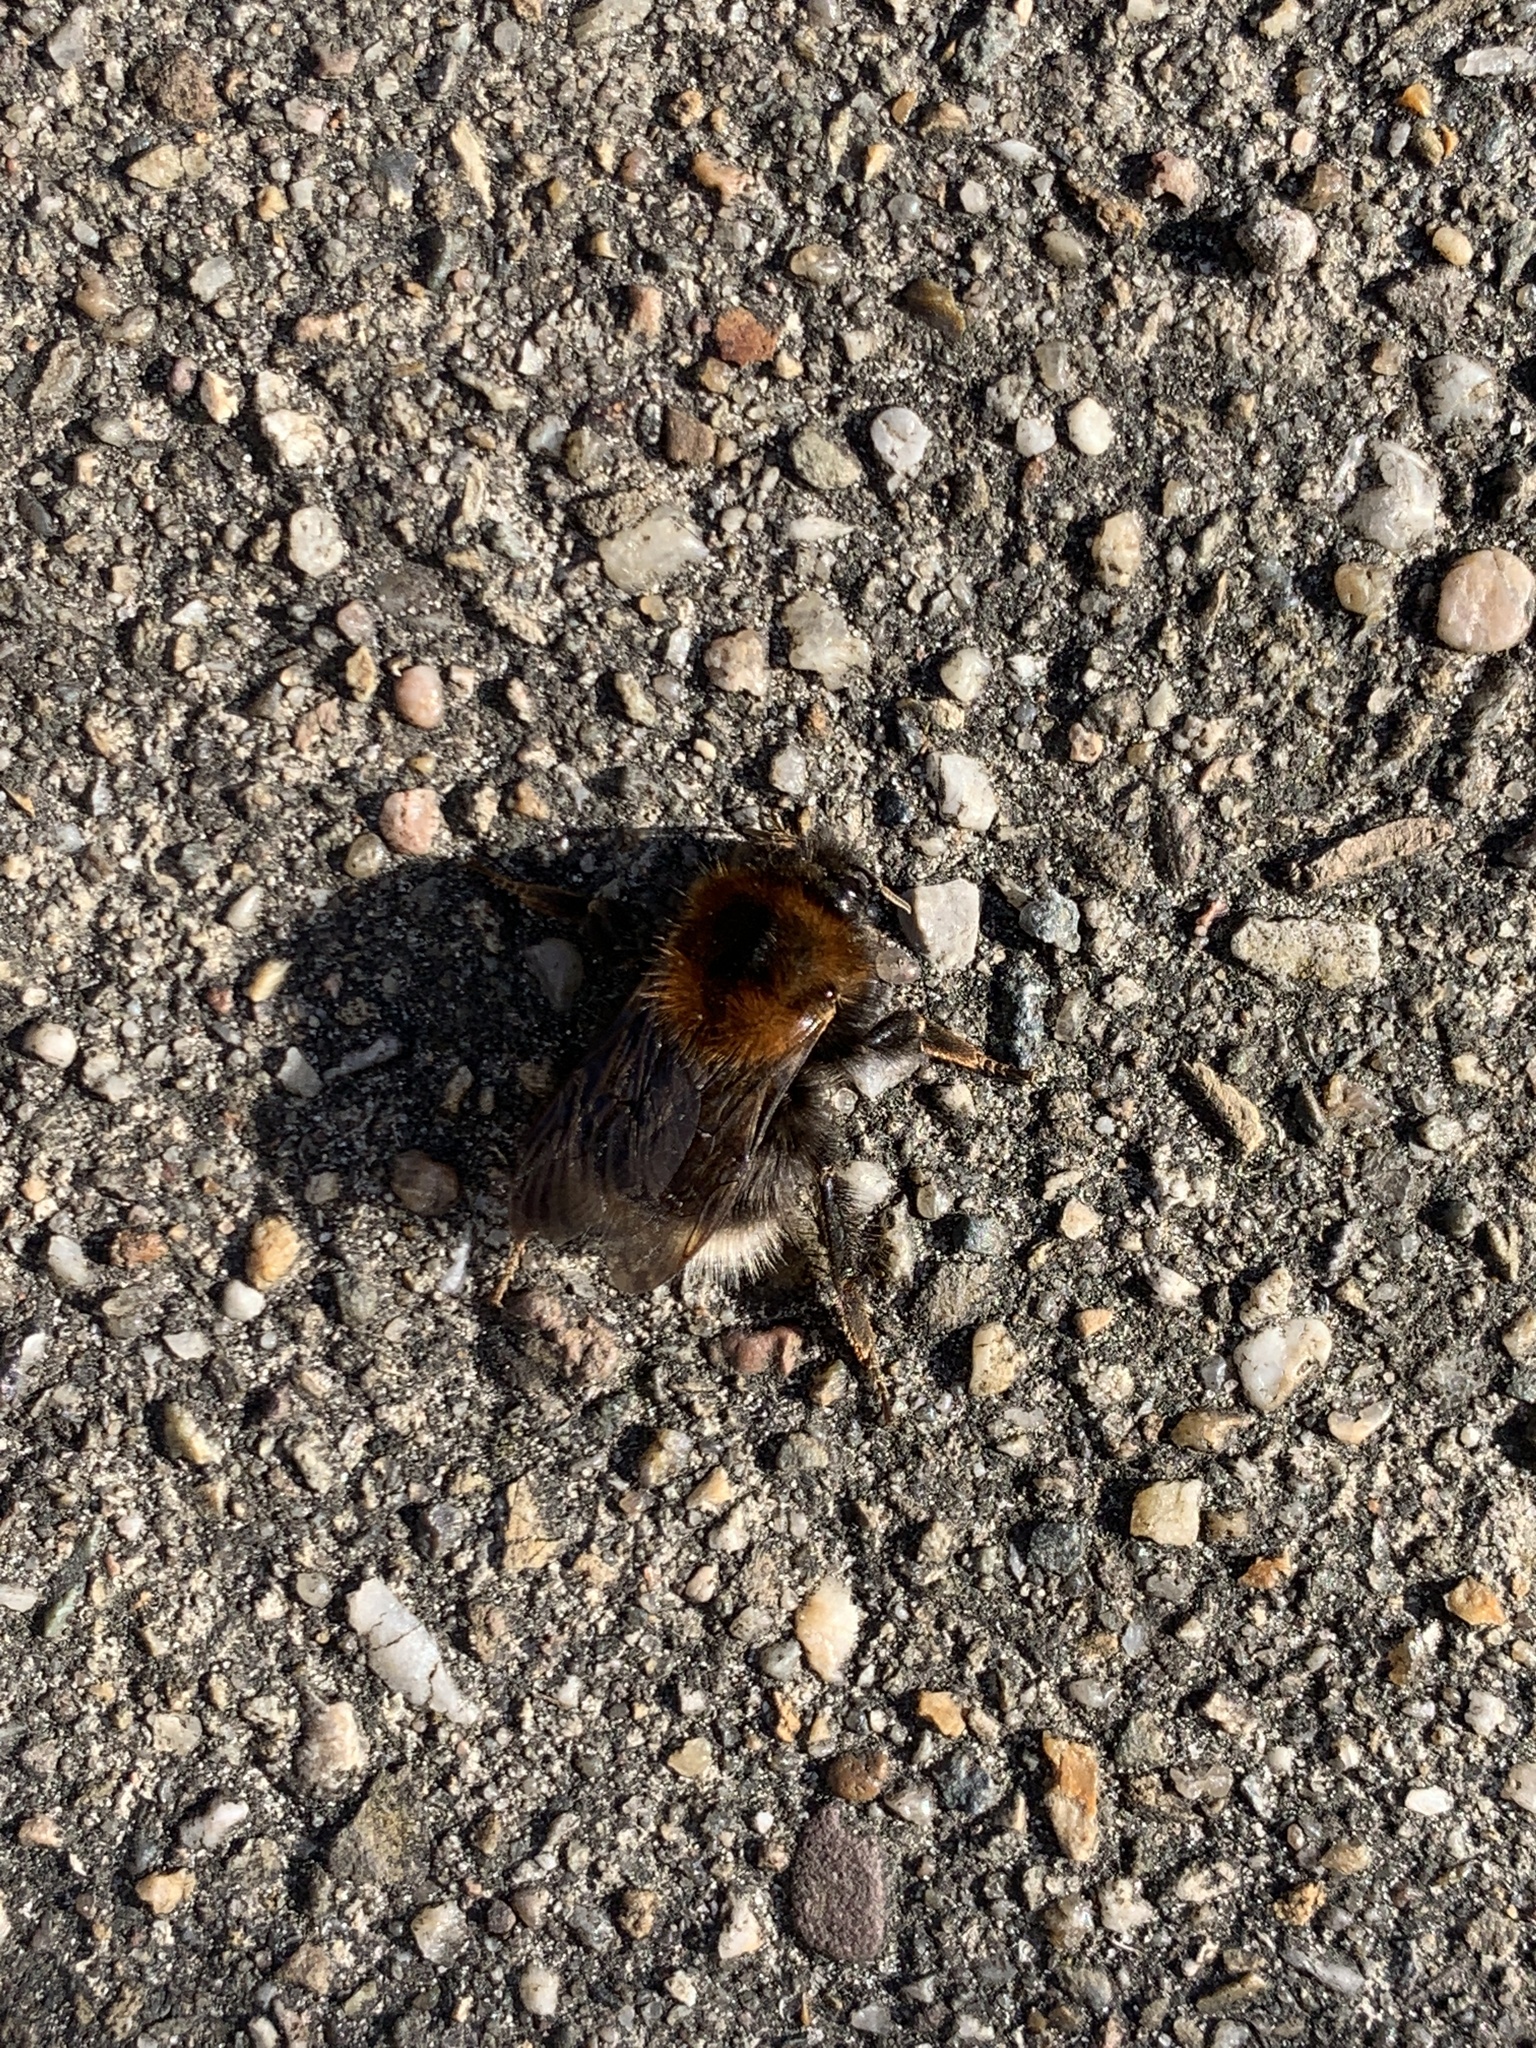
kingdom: Animalia
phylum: Arthropoda
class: Insecta
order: Hymenoptera
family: Apidae
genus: Bombus
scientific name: Bombus hypnorum
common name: New garden bumblebee
